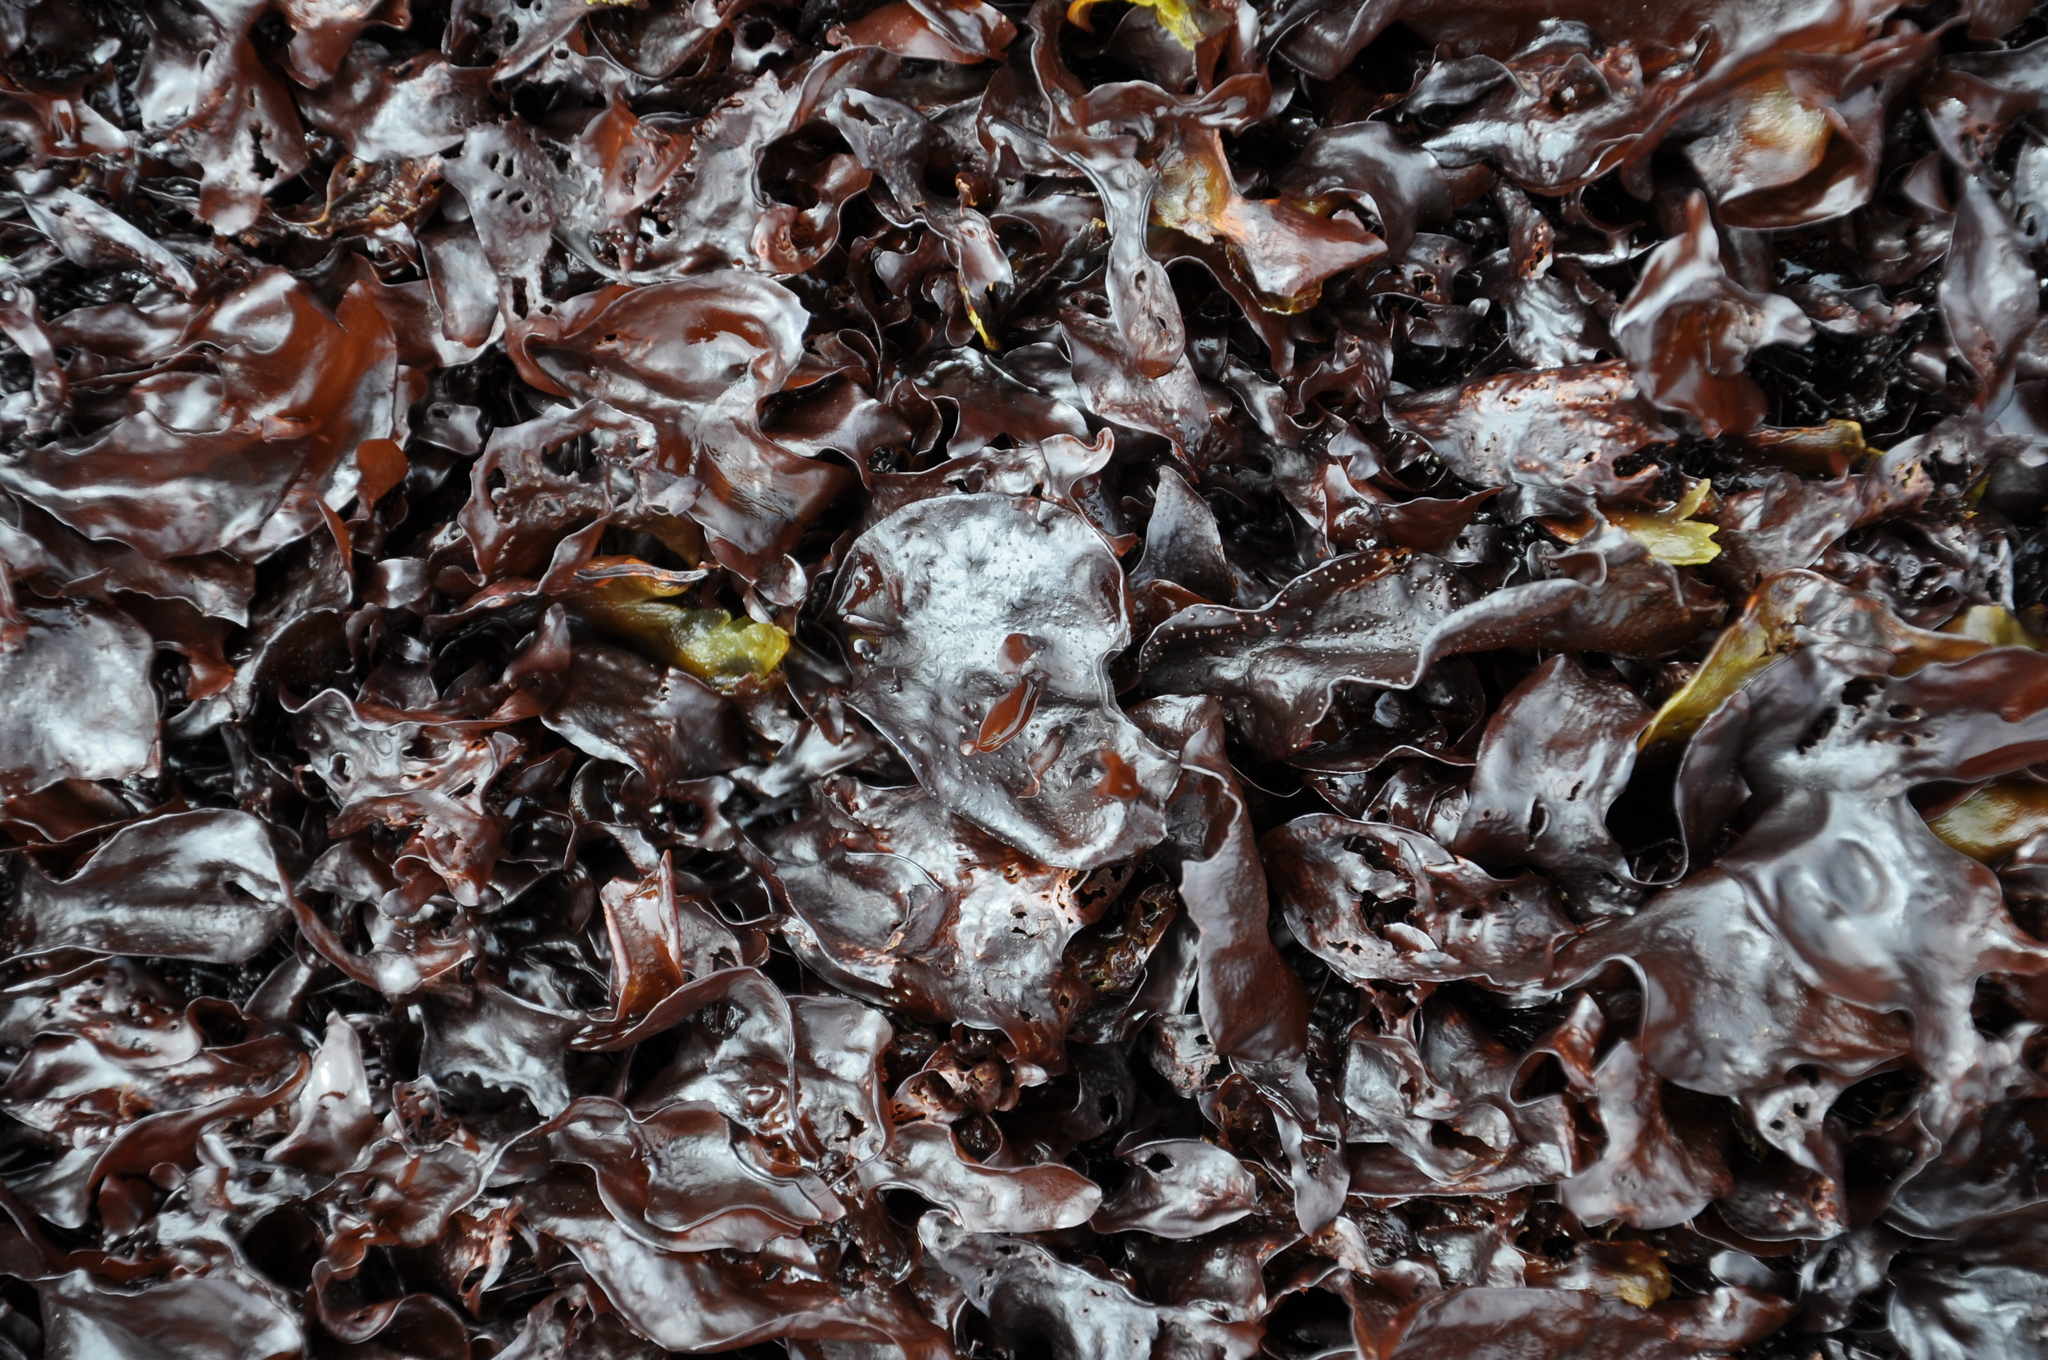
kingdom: Plantae
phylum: Rhodophyta
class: Florideophyceae
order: Gigartinales
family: Phyllophoraceae
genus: Mastocarpus
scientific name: Mastocarpus
